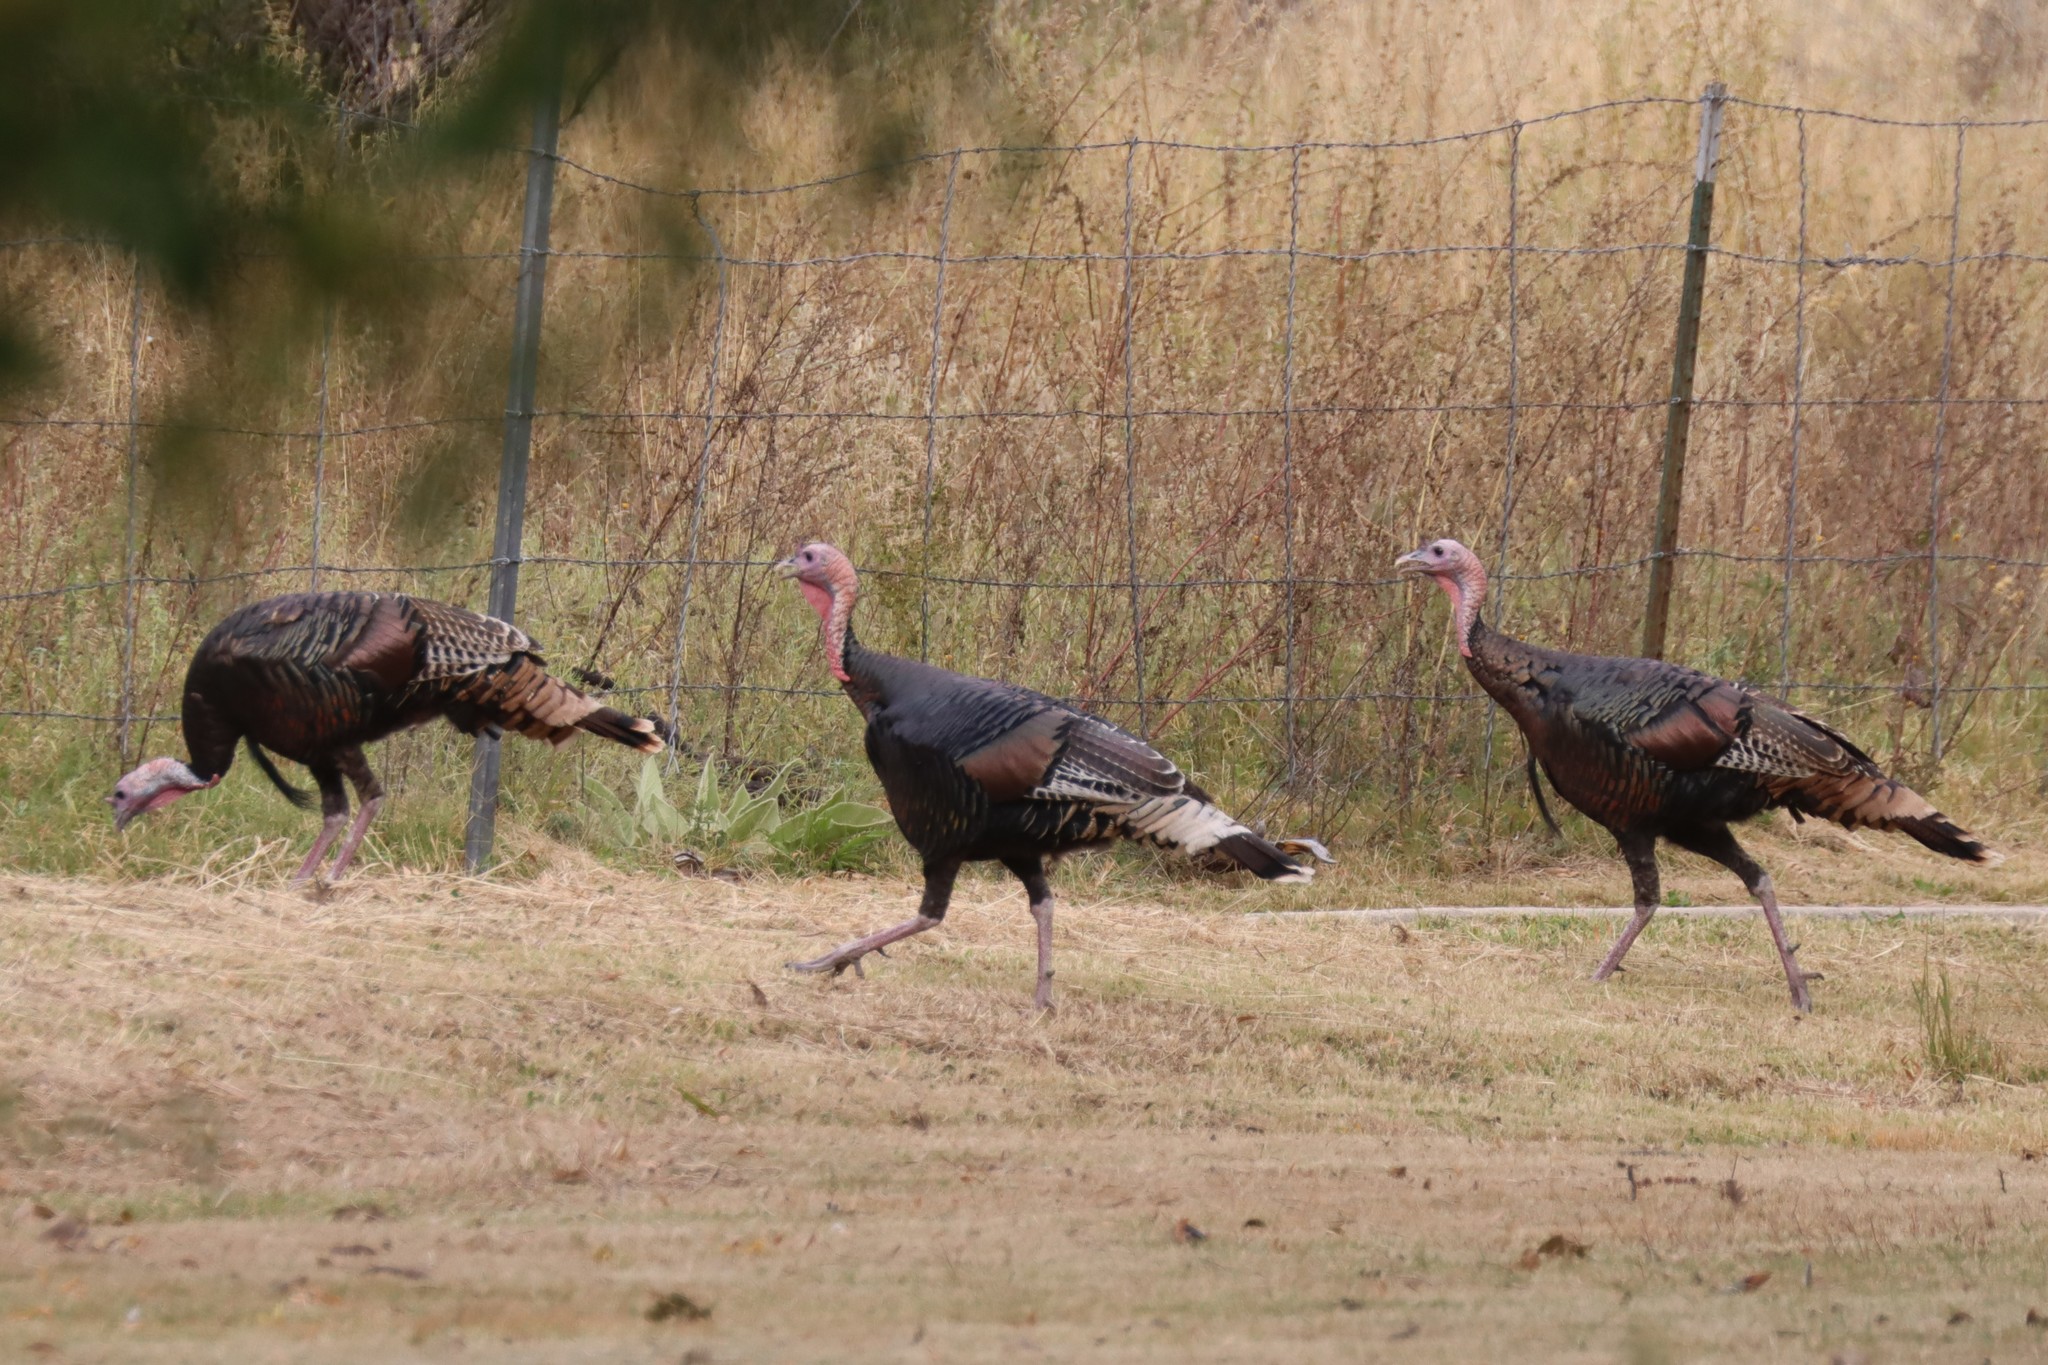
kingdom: Animalia
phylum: Chordata
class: Aves
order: Galliformes
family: Phasianidae
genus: Meleagris
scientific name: Meleagris gallopavo
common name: Wild turkey
